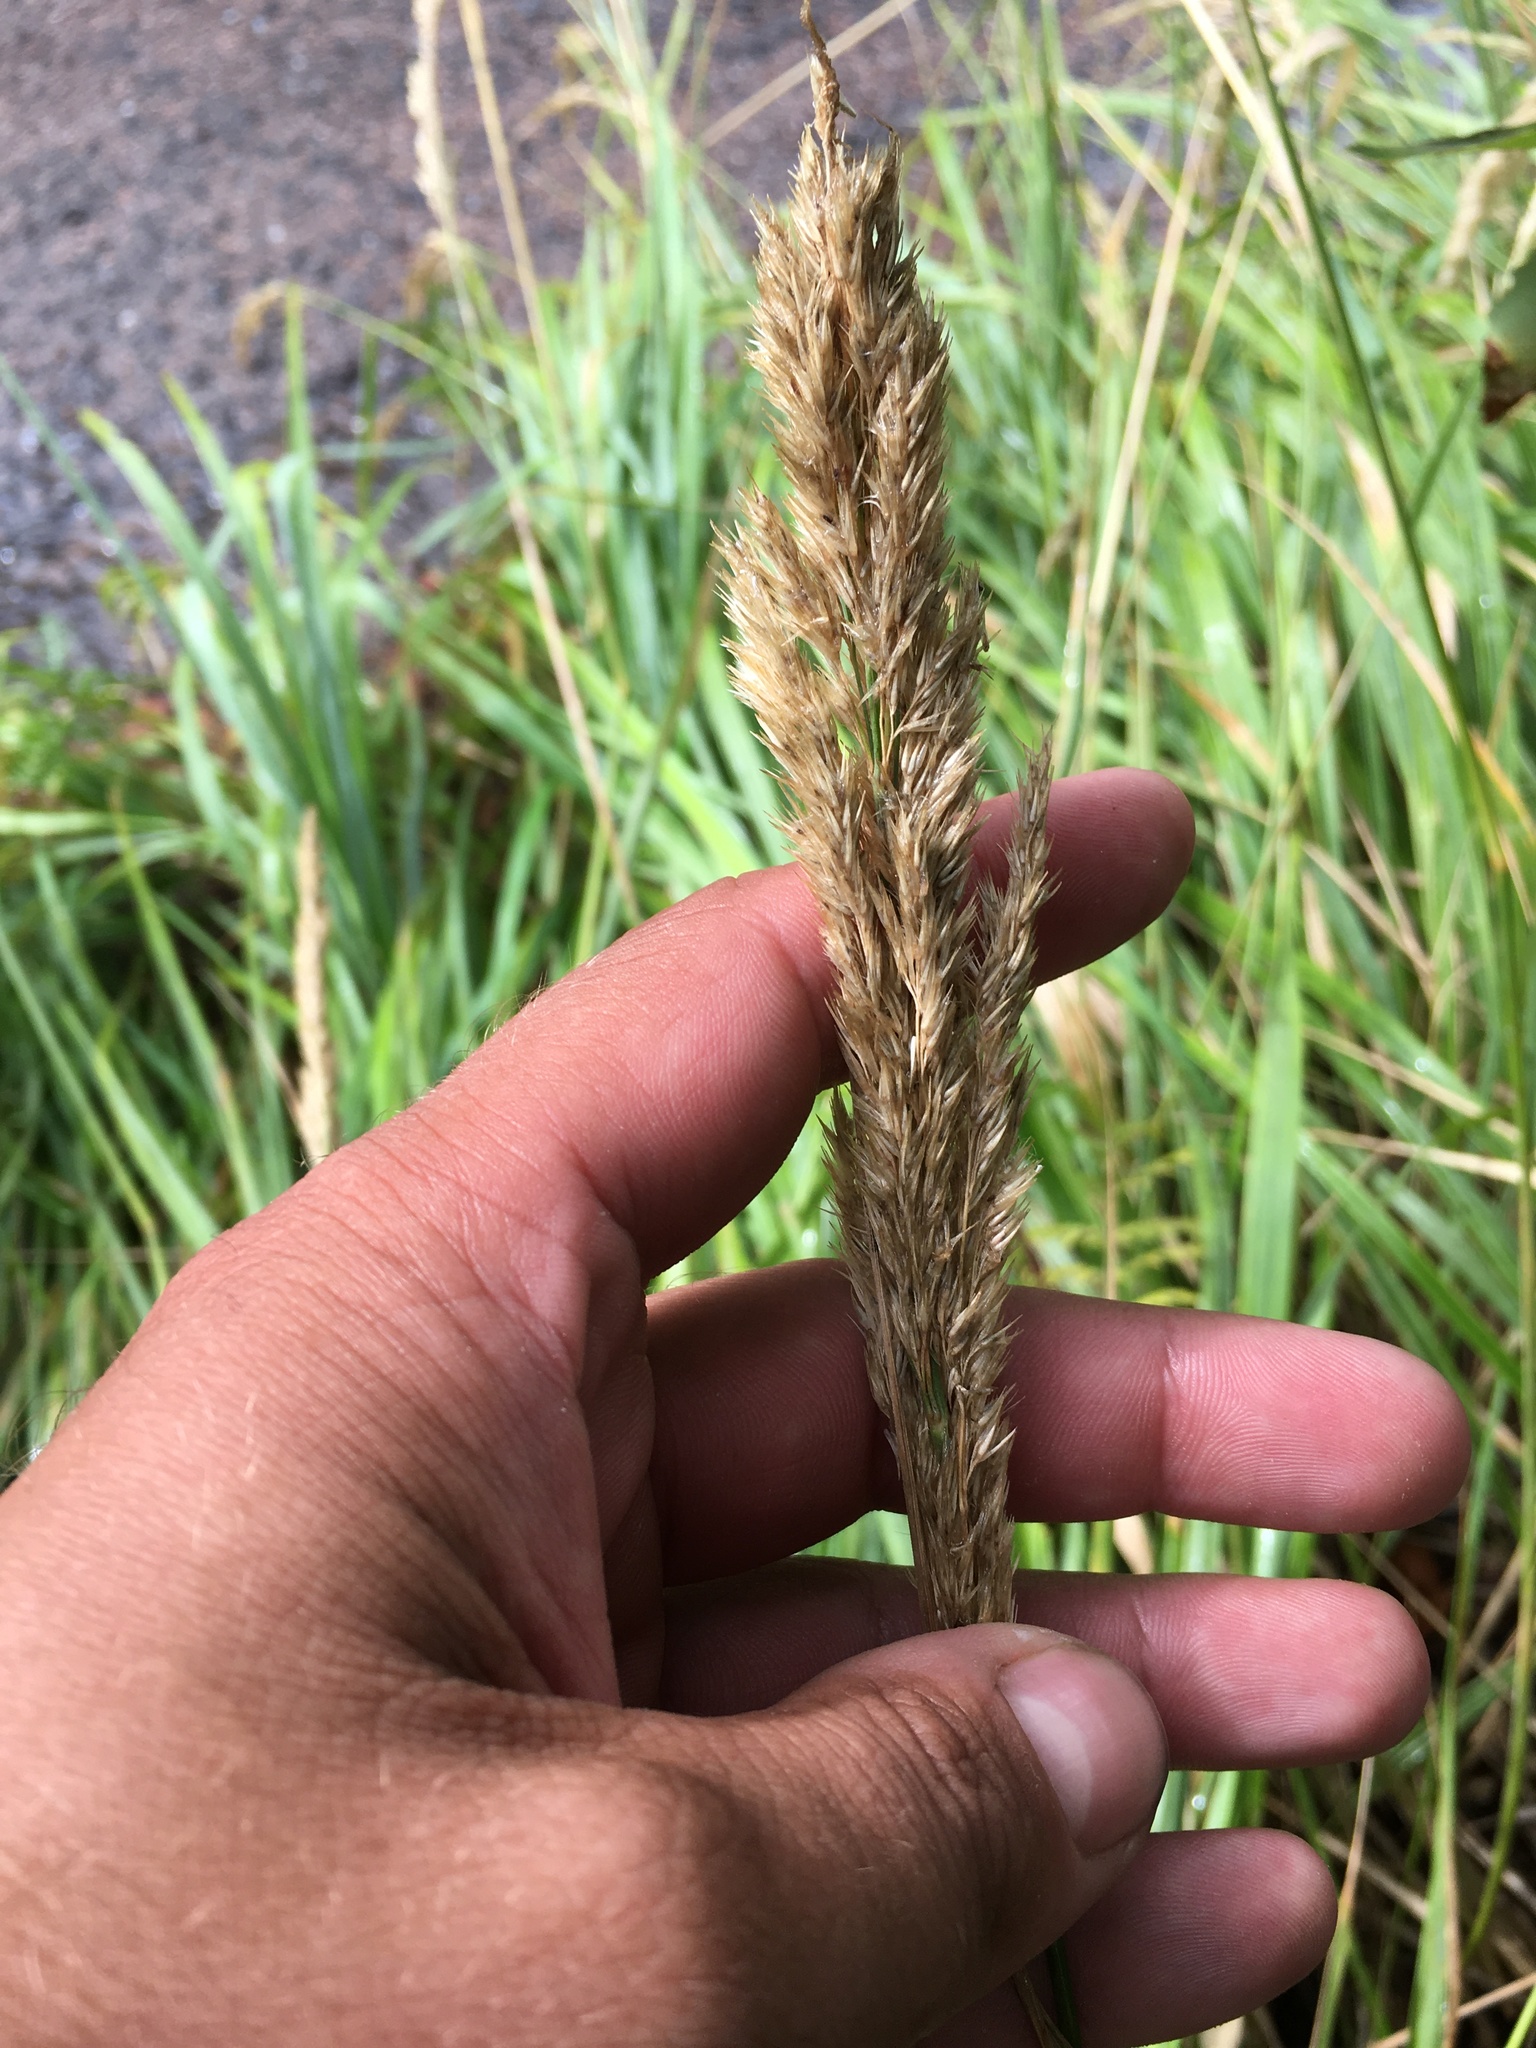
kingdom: Plantae
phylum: Tracheophyta
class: Liliopsida
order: Poales
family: Poaceae
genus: Calamagrostis
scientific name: Calamagrostis epigejos
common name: Wood small-reed
